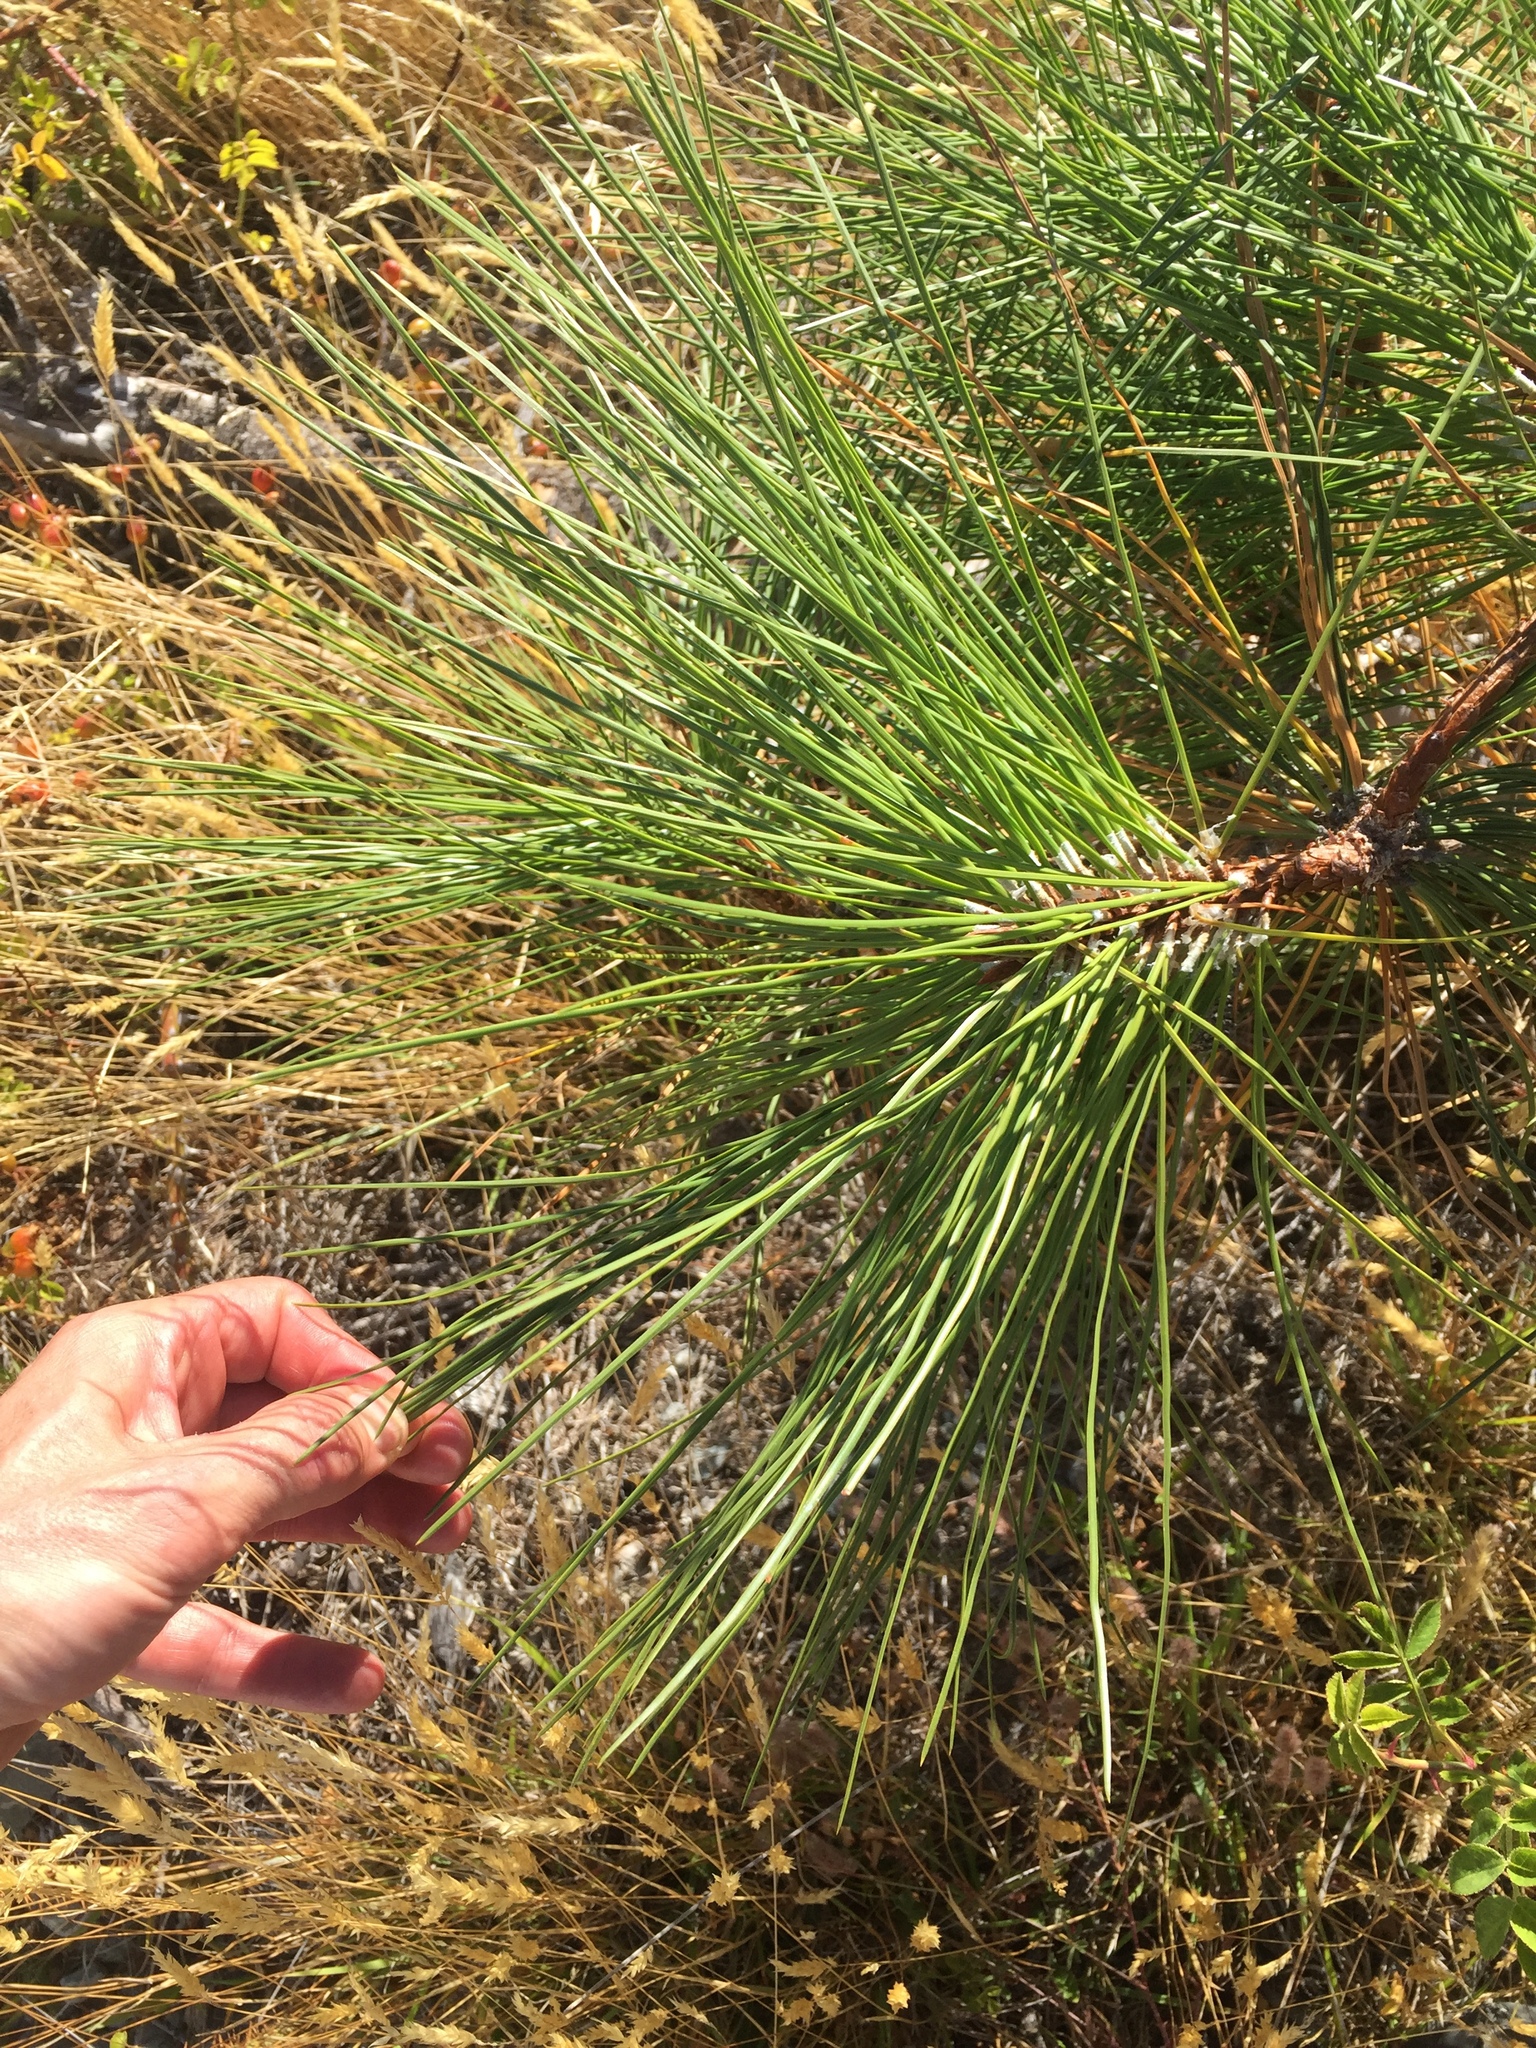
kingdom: Plantae
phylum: Tracheophyta
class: Pinopsida
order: Pinales
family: Pinaceae
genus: Pinus
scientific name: Pinus ponderosa
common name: Western yellow-pine
